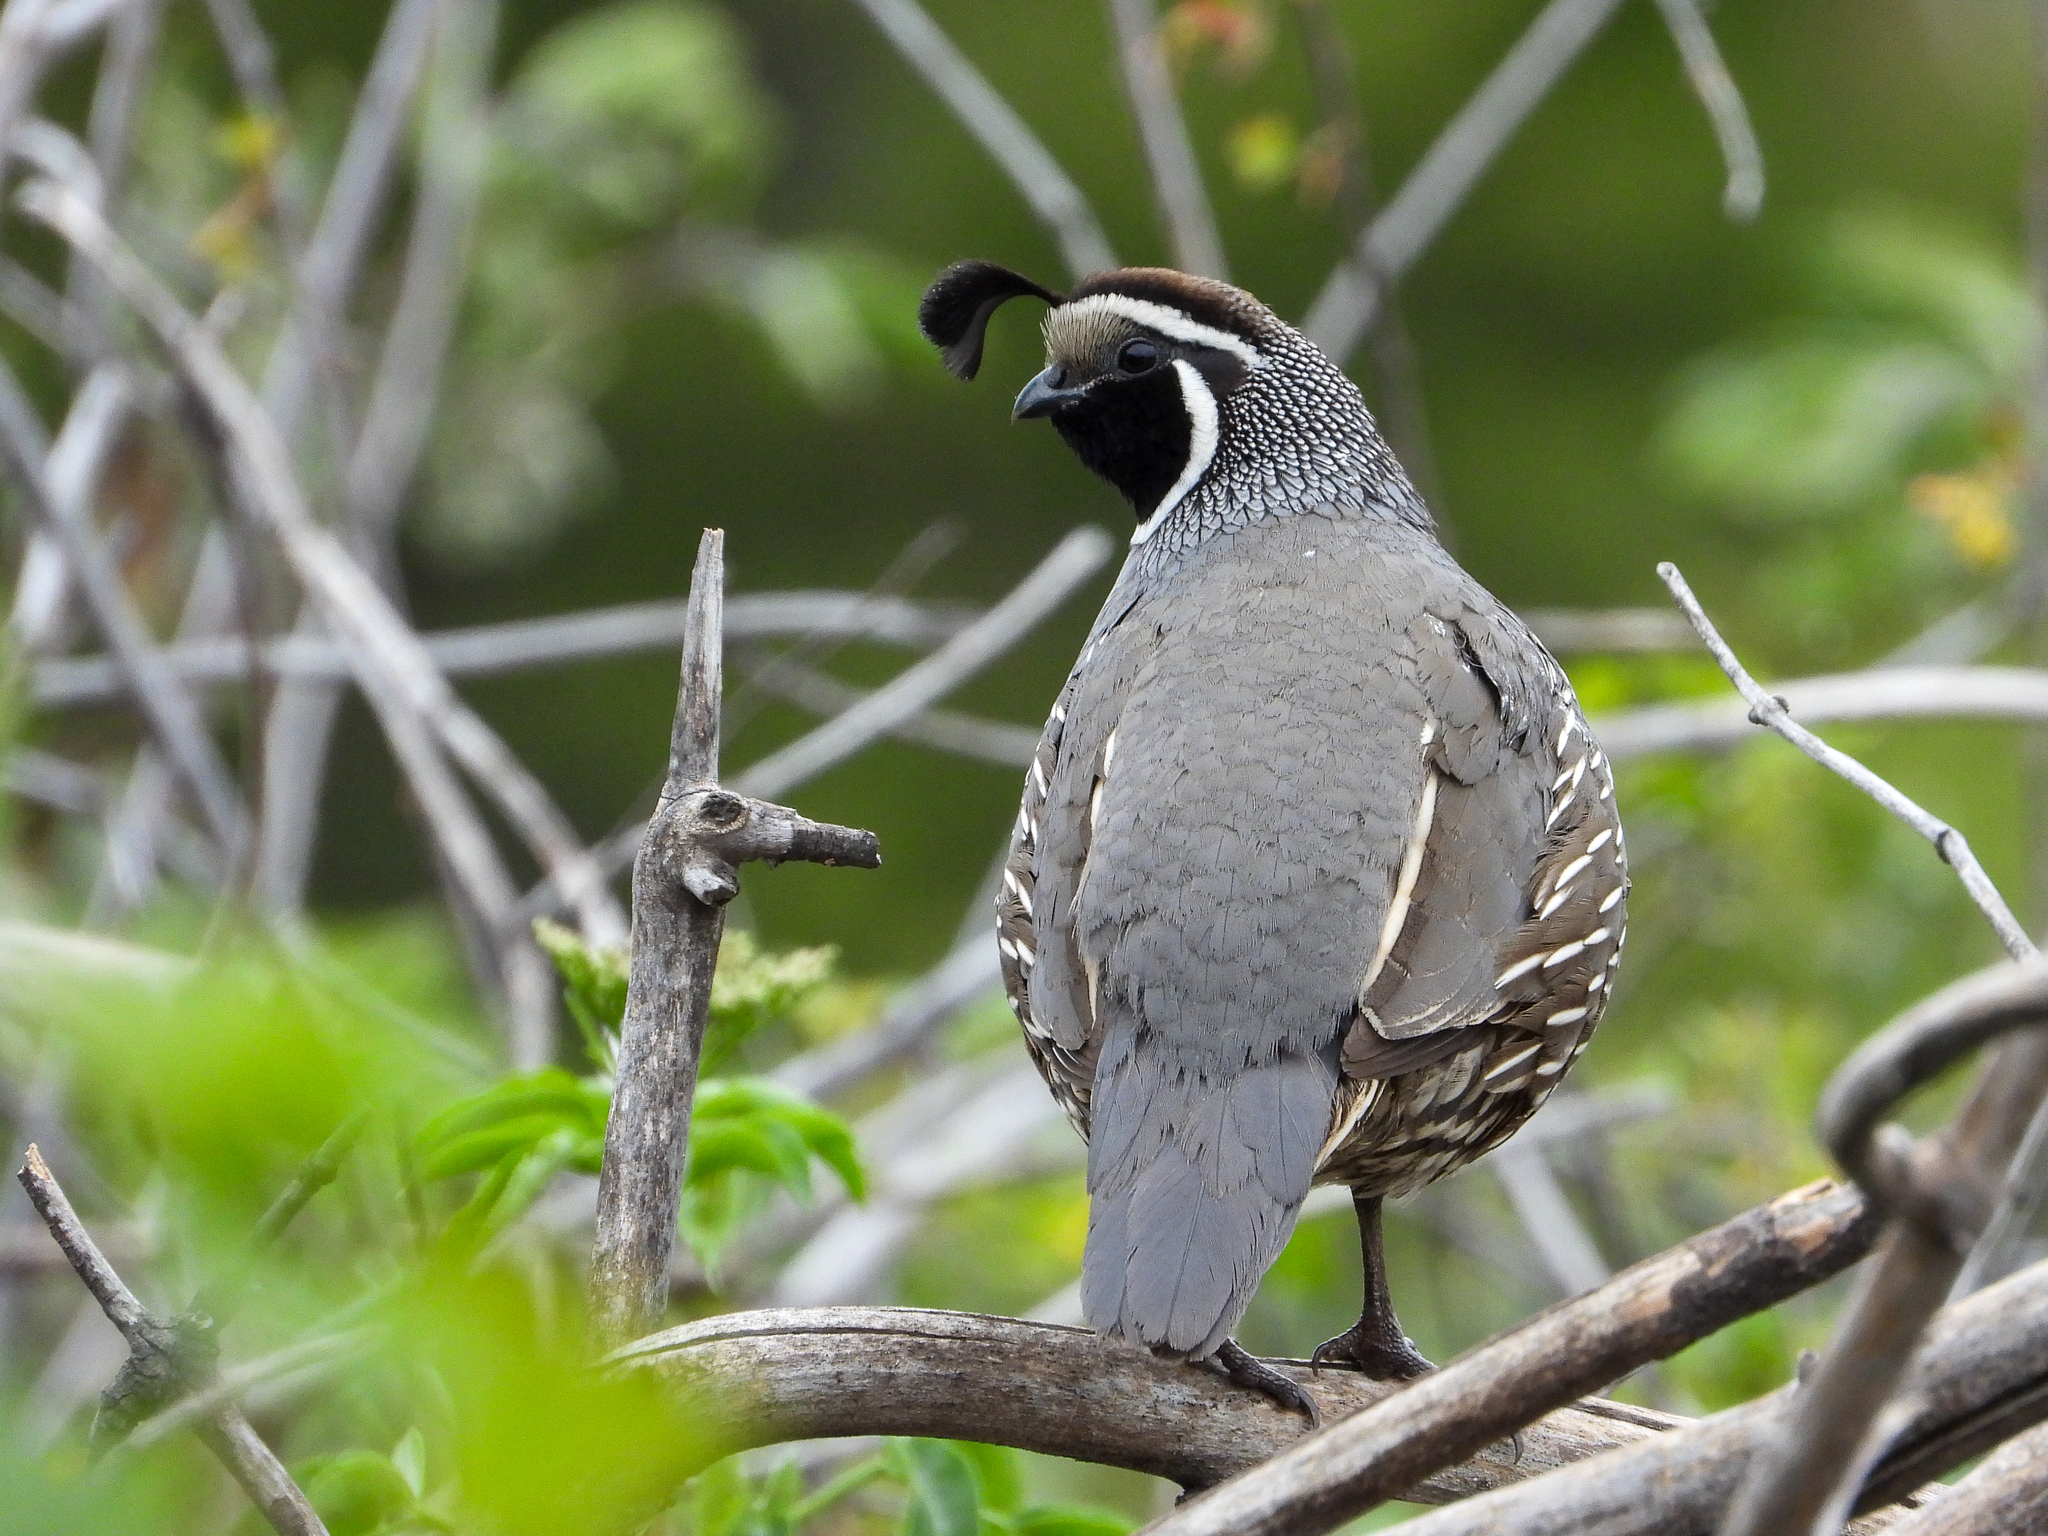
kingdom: Animalia
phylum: Chordata
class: Aves
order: Galliformes
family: Odontophoridae
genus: Callipepla
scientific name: Callipepla californica
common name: California quail
